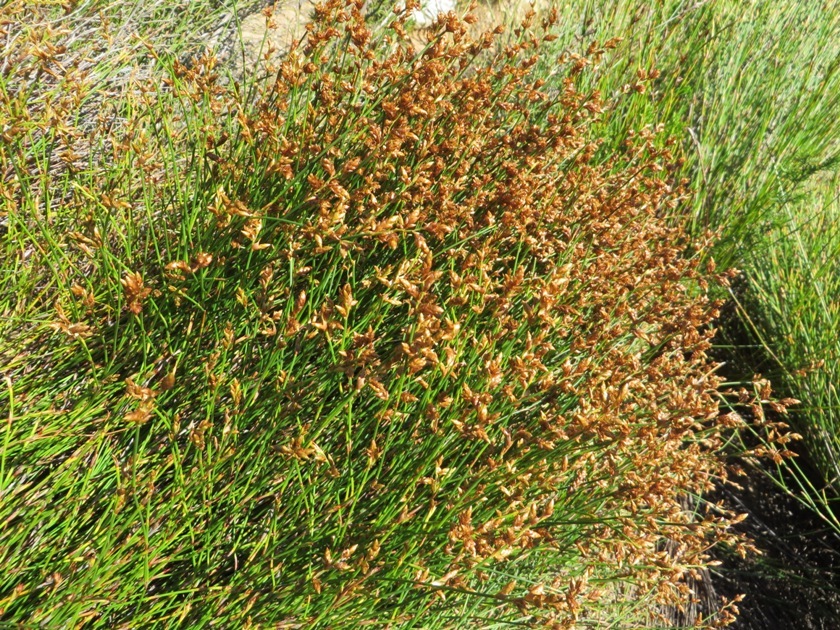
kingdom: Plantae
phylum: Tracheophyta
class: Liliopsida
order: Poales
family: Restionaceae
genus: Mastersiella
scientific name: Mastersiella digitata
